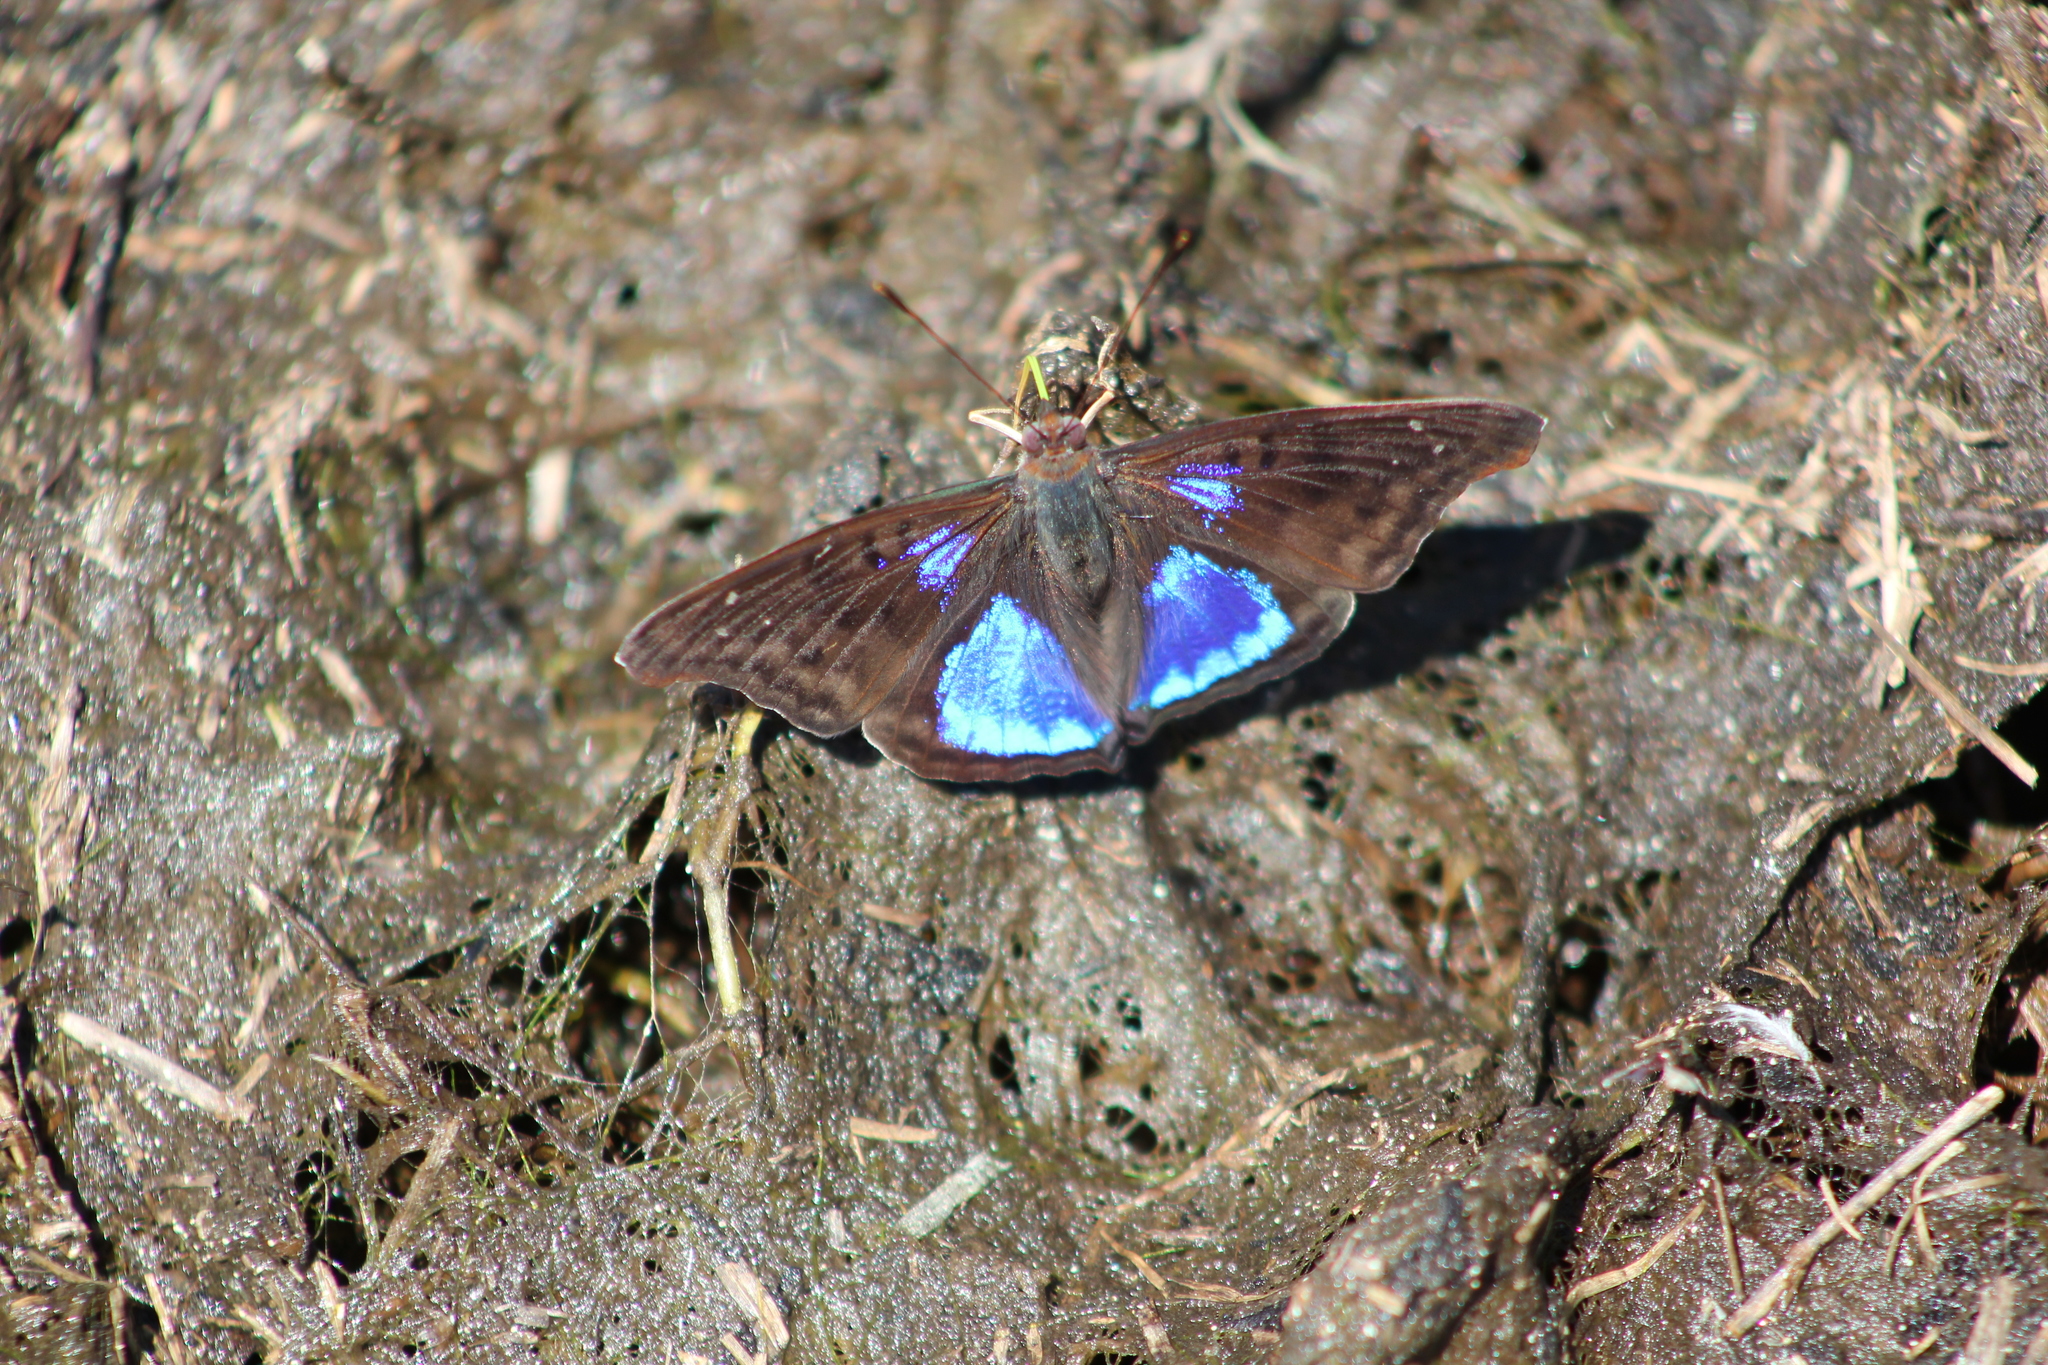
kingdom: Animalia
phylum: Arthropoda
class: Insecta
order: Lepidoptera
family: Nymphalidae
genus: Doxocopa
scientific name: Doxocopa cyane
